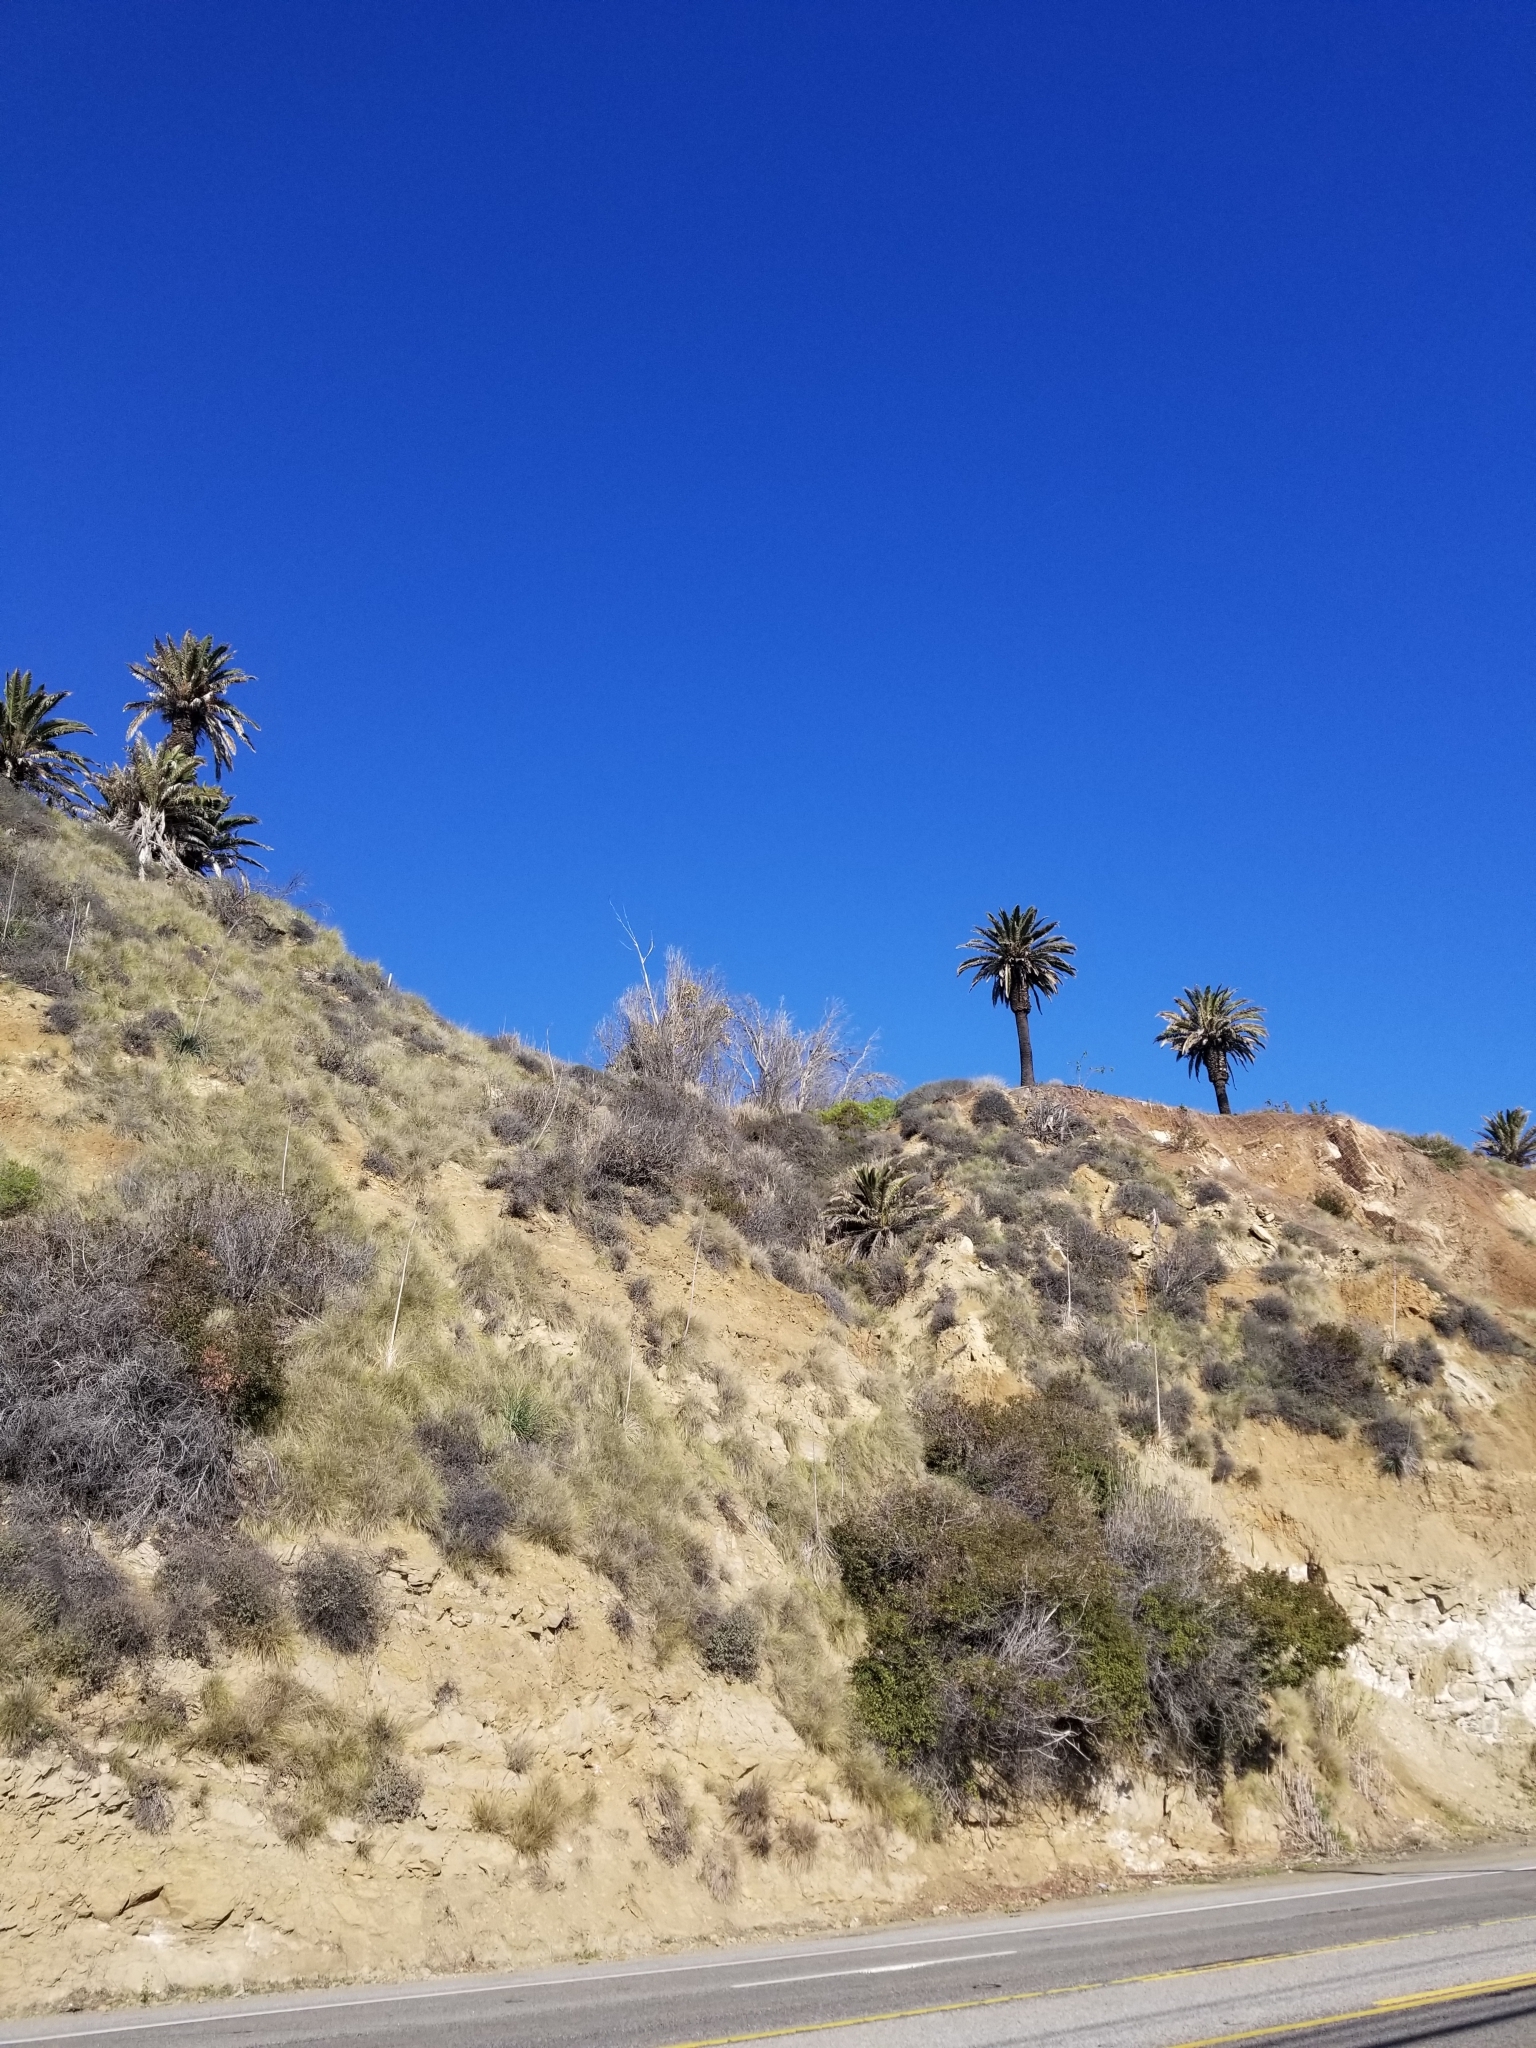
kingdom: Plantae
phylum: Tracheophyta
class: Liliopsida
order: Arecales
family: Arecaceae
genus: Phoenix
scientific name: Phoenix canariensis
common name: Canary island date palm
